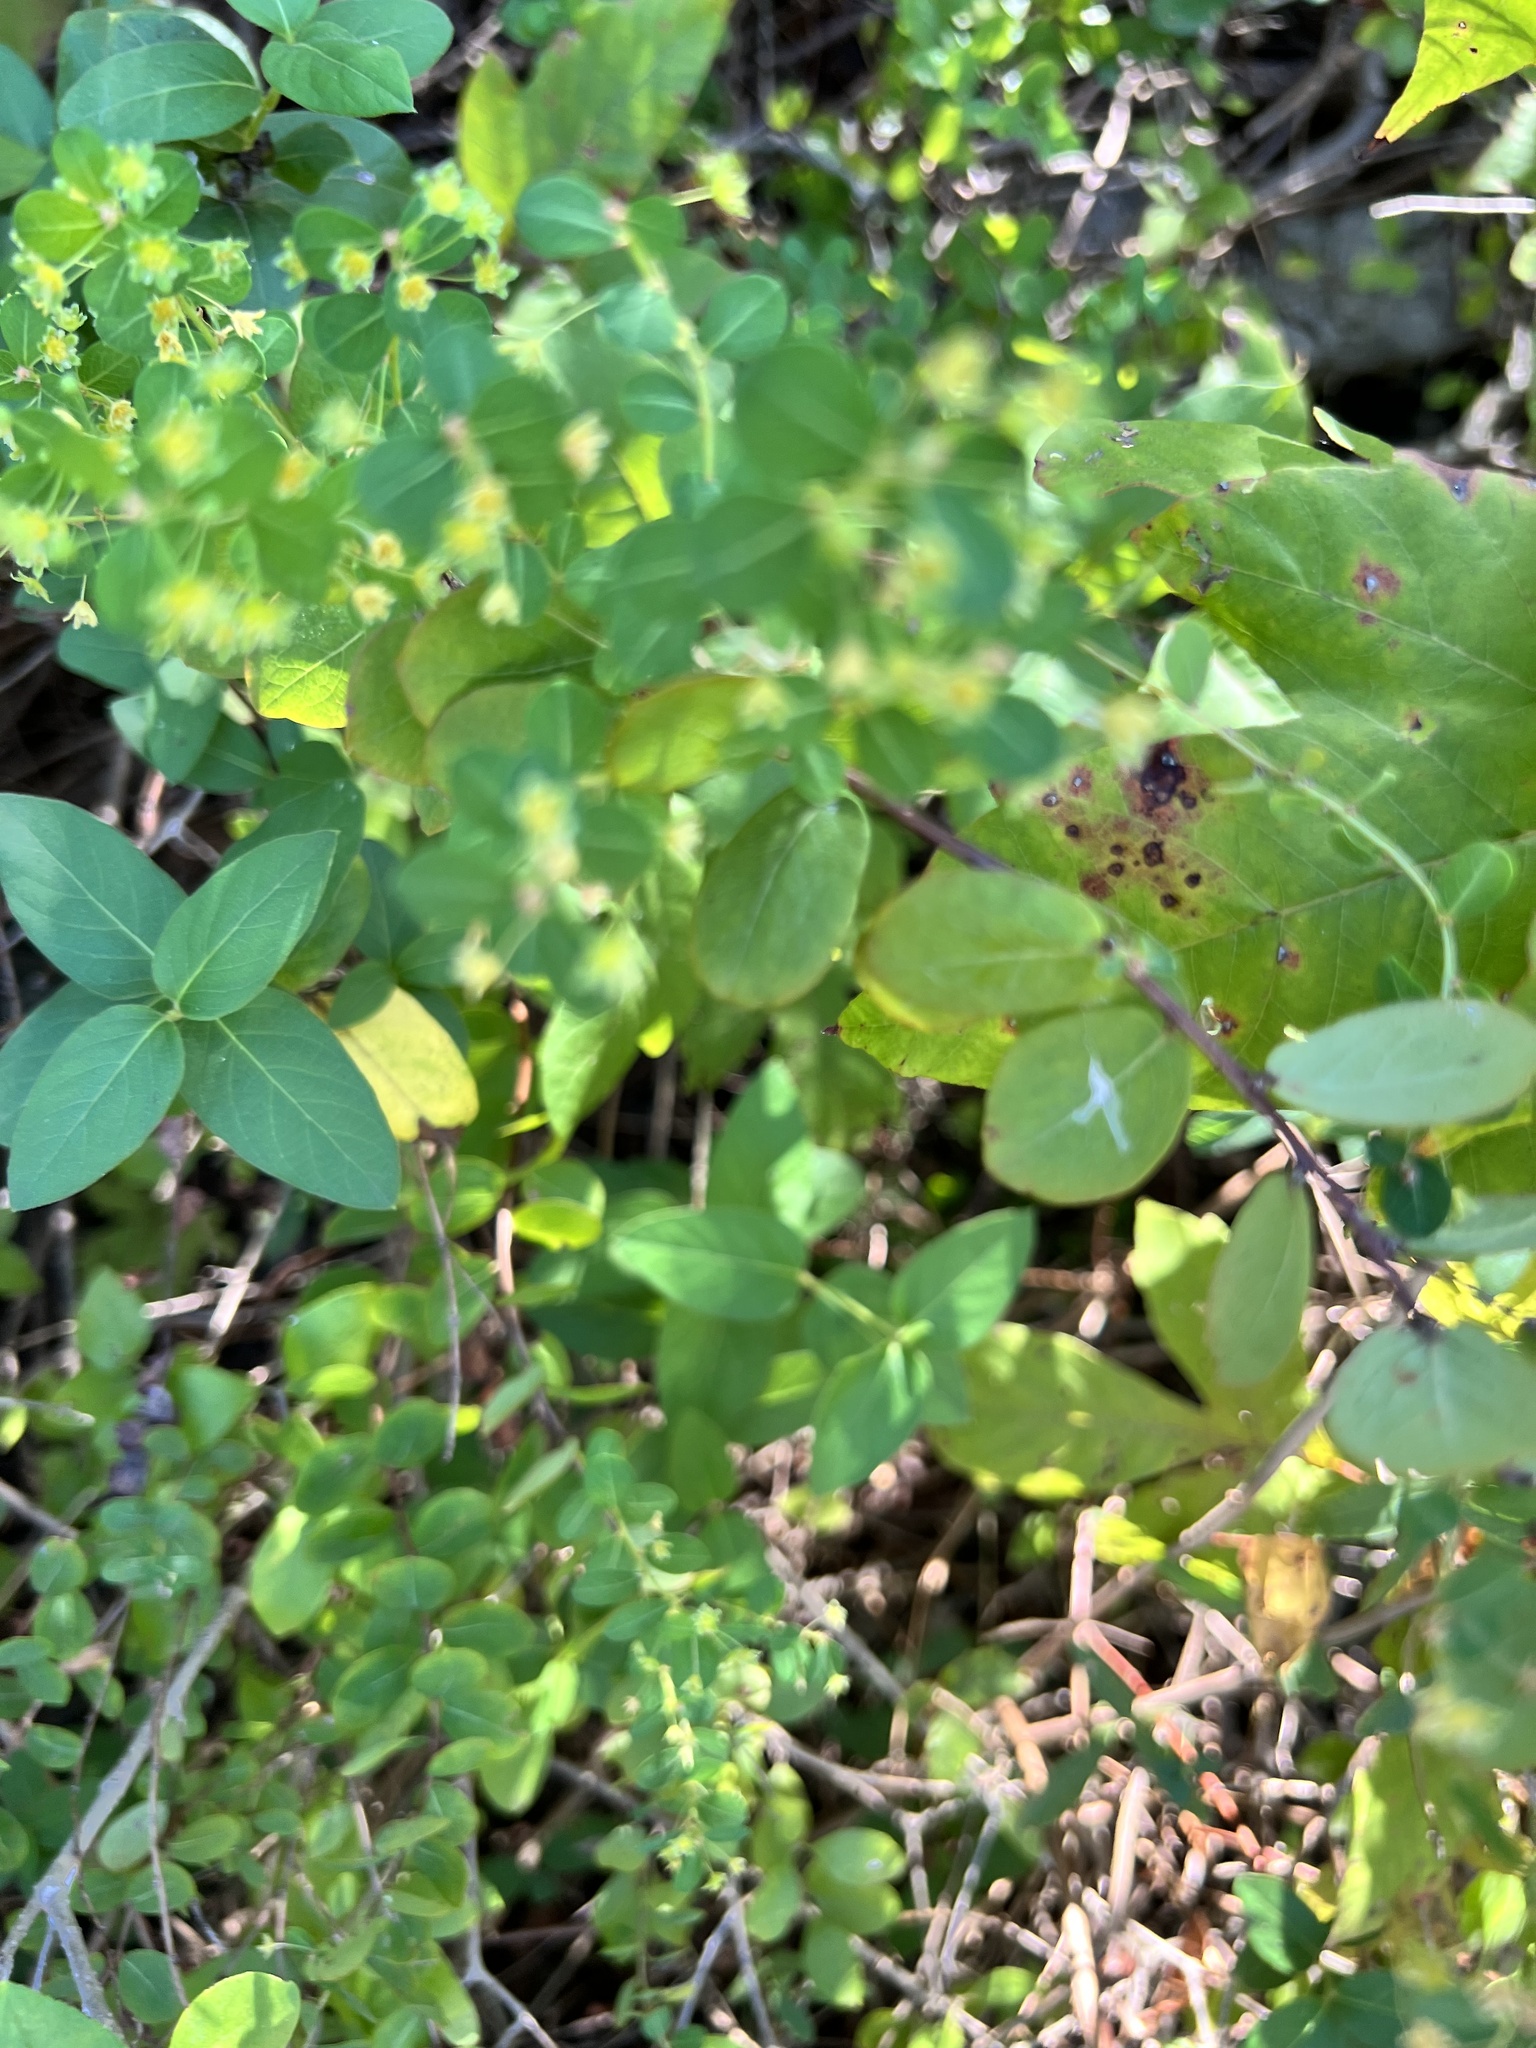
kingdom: Plantae
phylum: Tracheophyta
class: Magnoliopsida
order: Malpighiales
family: Phyllanthaceae
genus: Phyllanthopsis
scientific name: Phyllanthopsis phyllanthoides
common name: Missouri maidenbush
